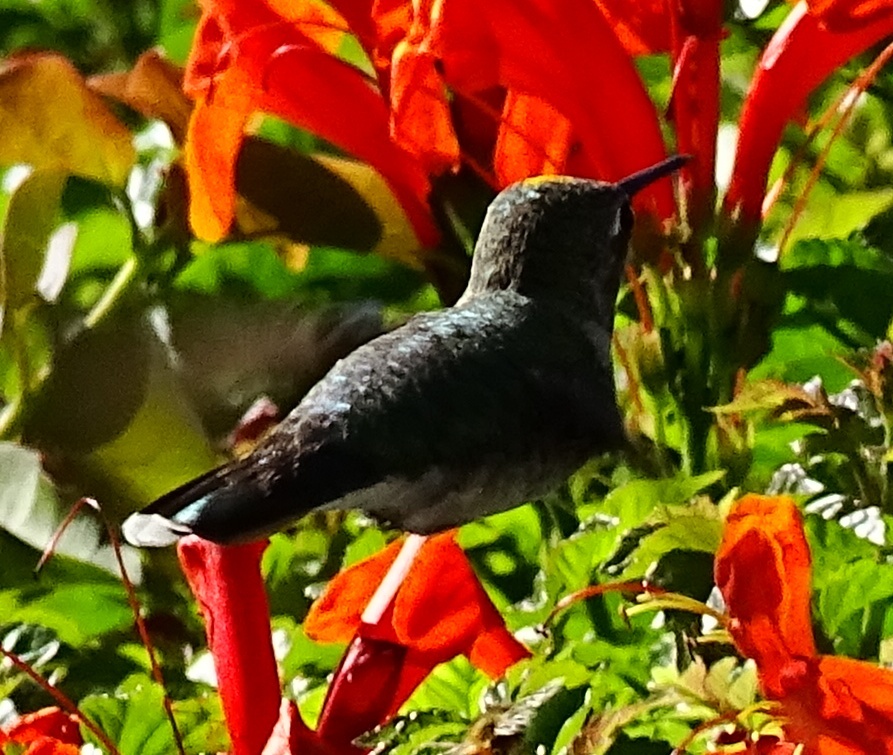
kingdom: Animalia
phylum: Chordata
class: Aves
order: Apodiformes
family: Trochilidae
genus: Calypte
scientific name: Calypte anna
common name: Anna's hummingbird
